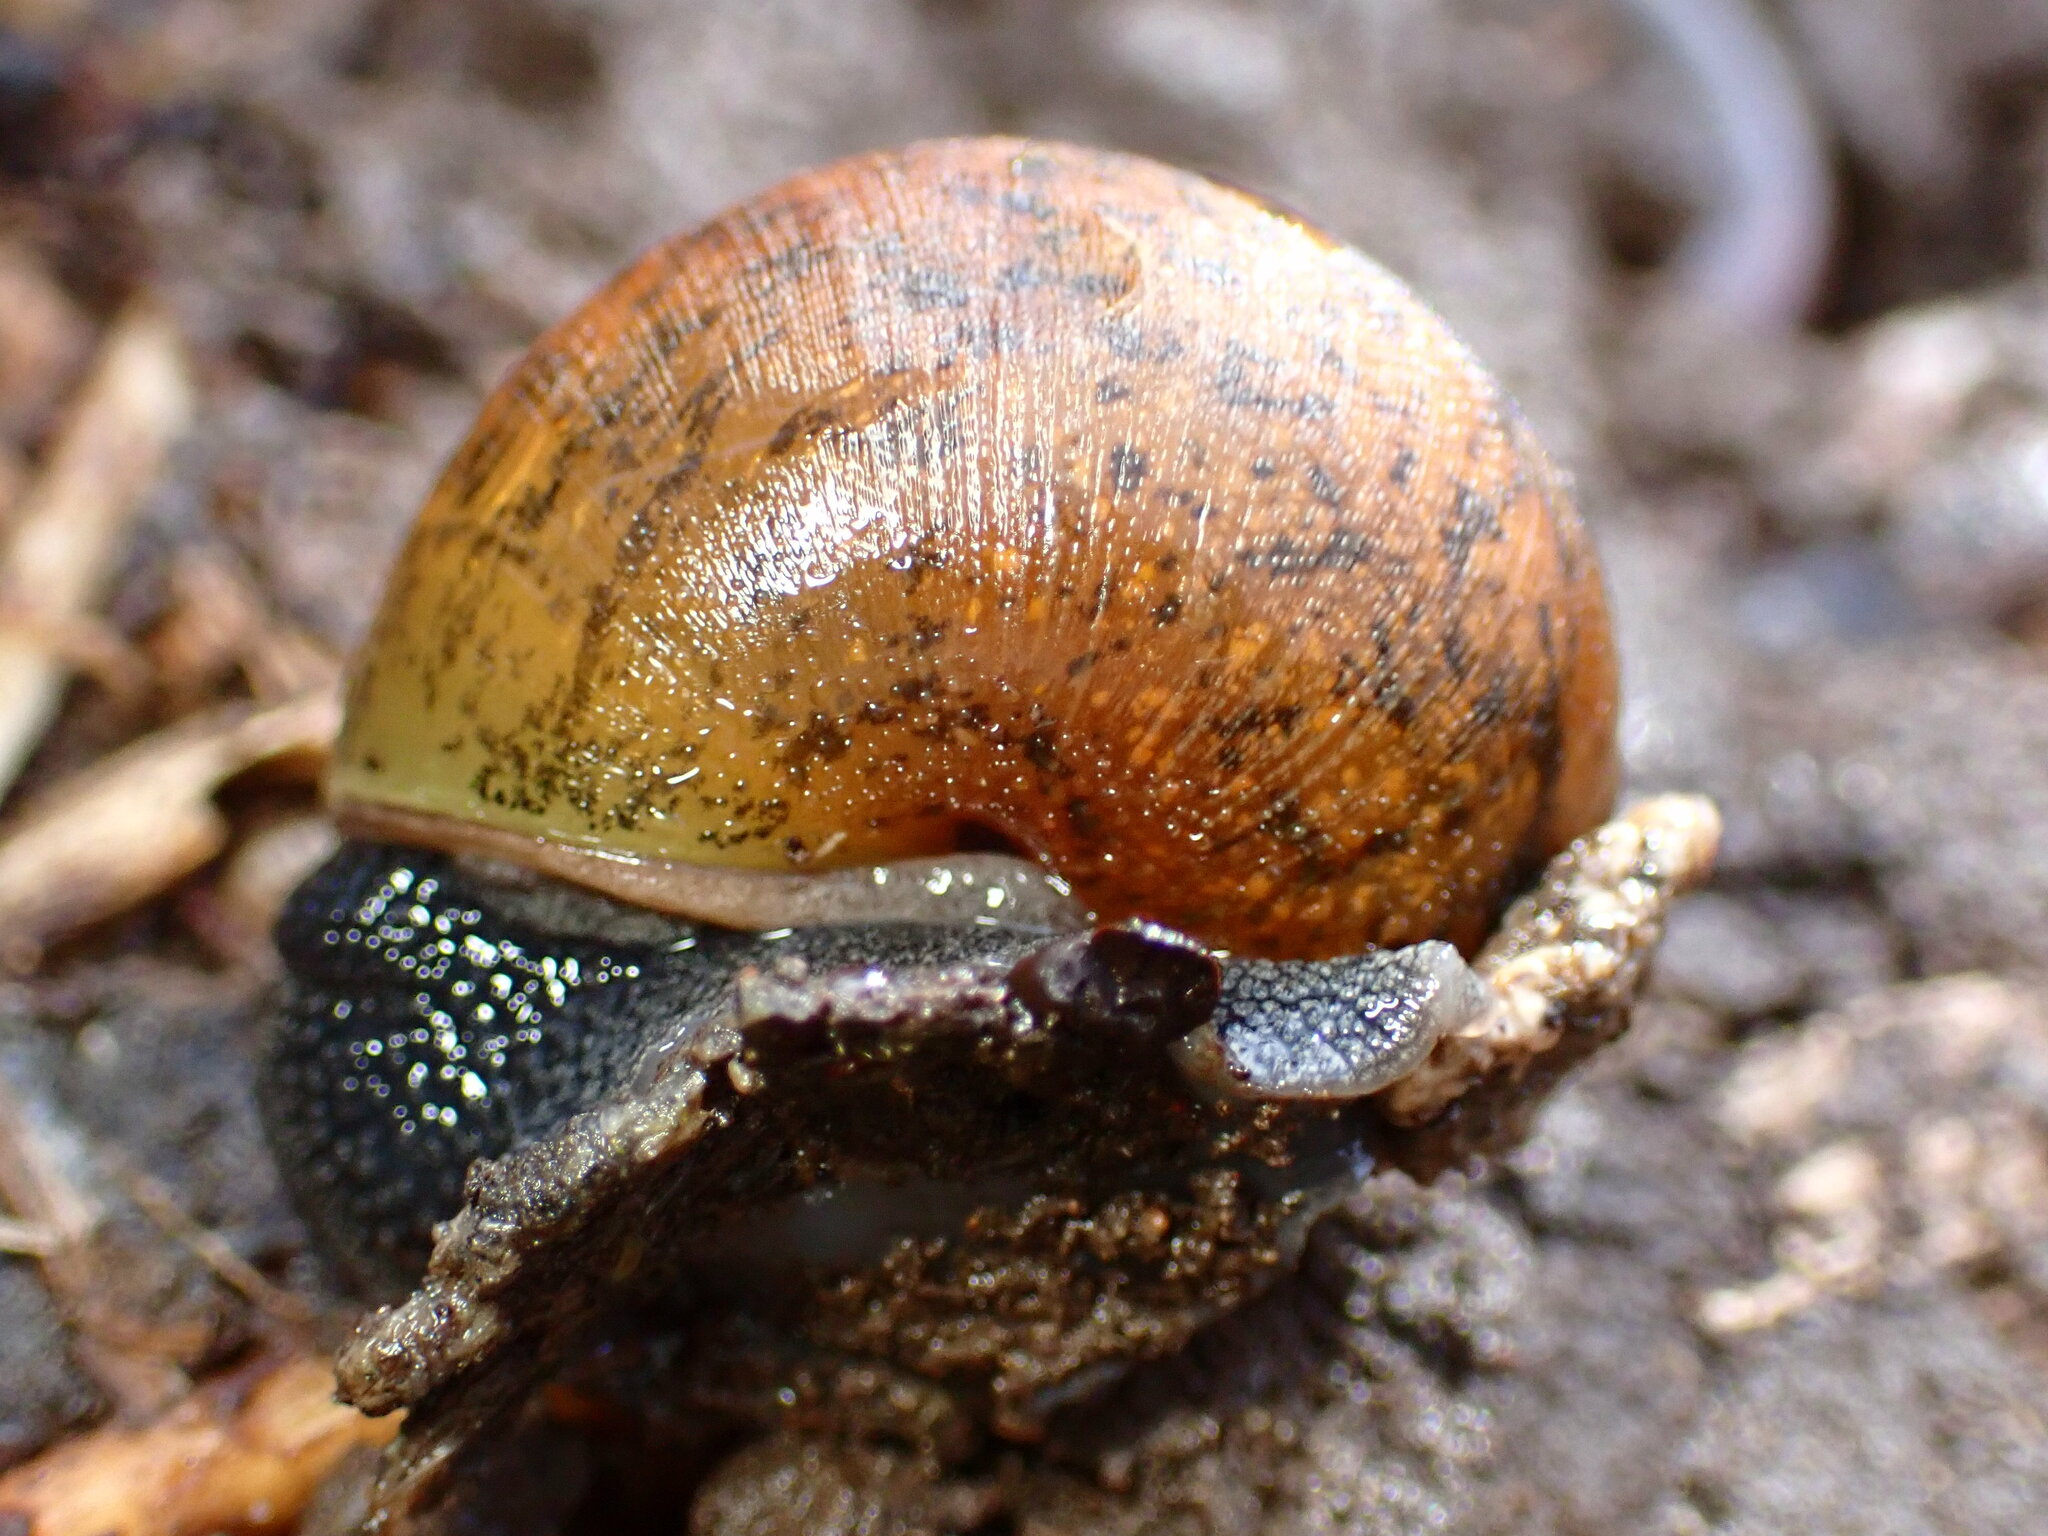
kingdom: Animalia
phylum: Mollusca
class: Gastropoda
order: Stylommatophora
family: Xanthonychidae
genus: Helminthoglypta
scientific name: Helminthoglypta nickliniana
